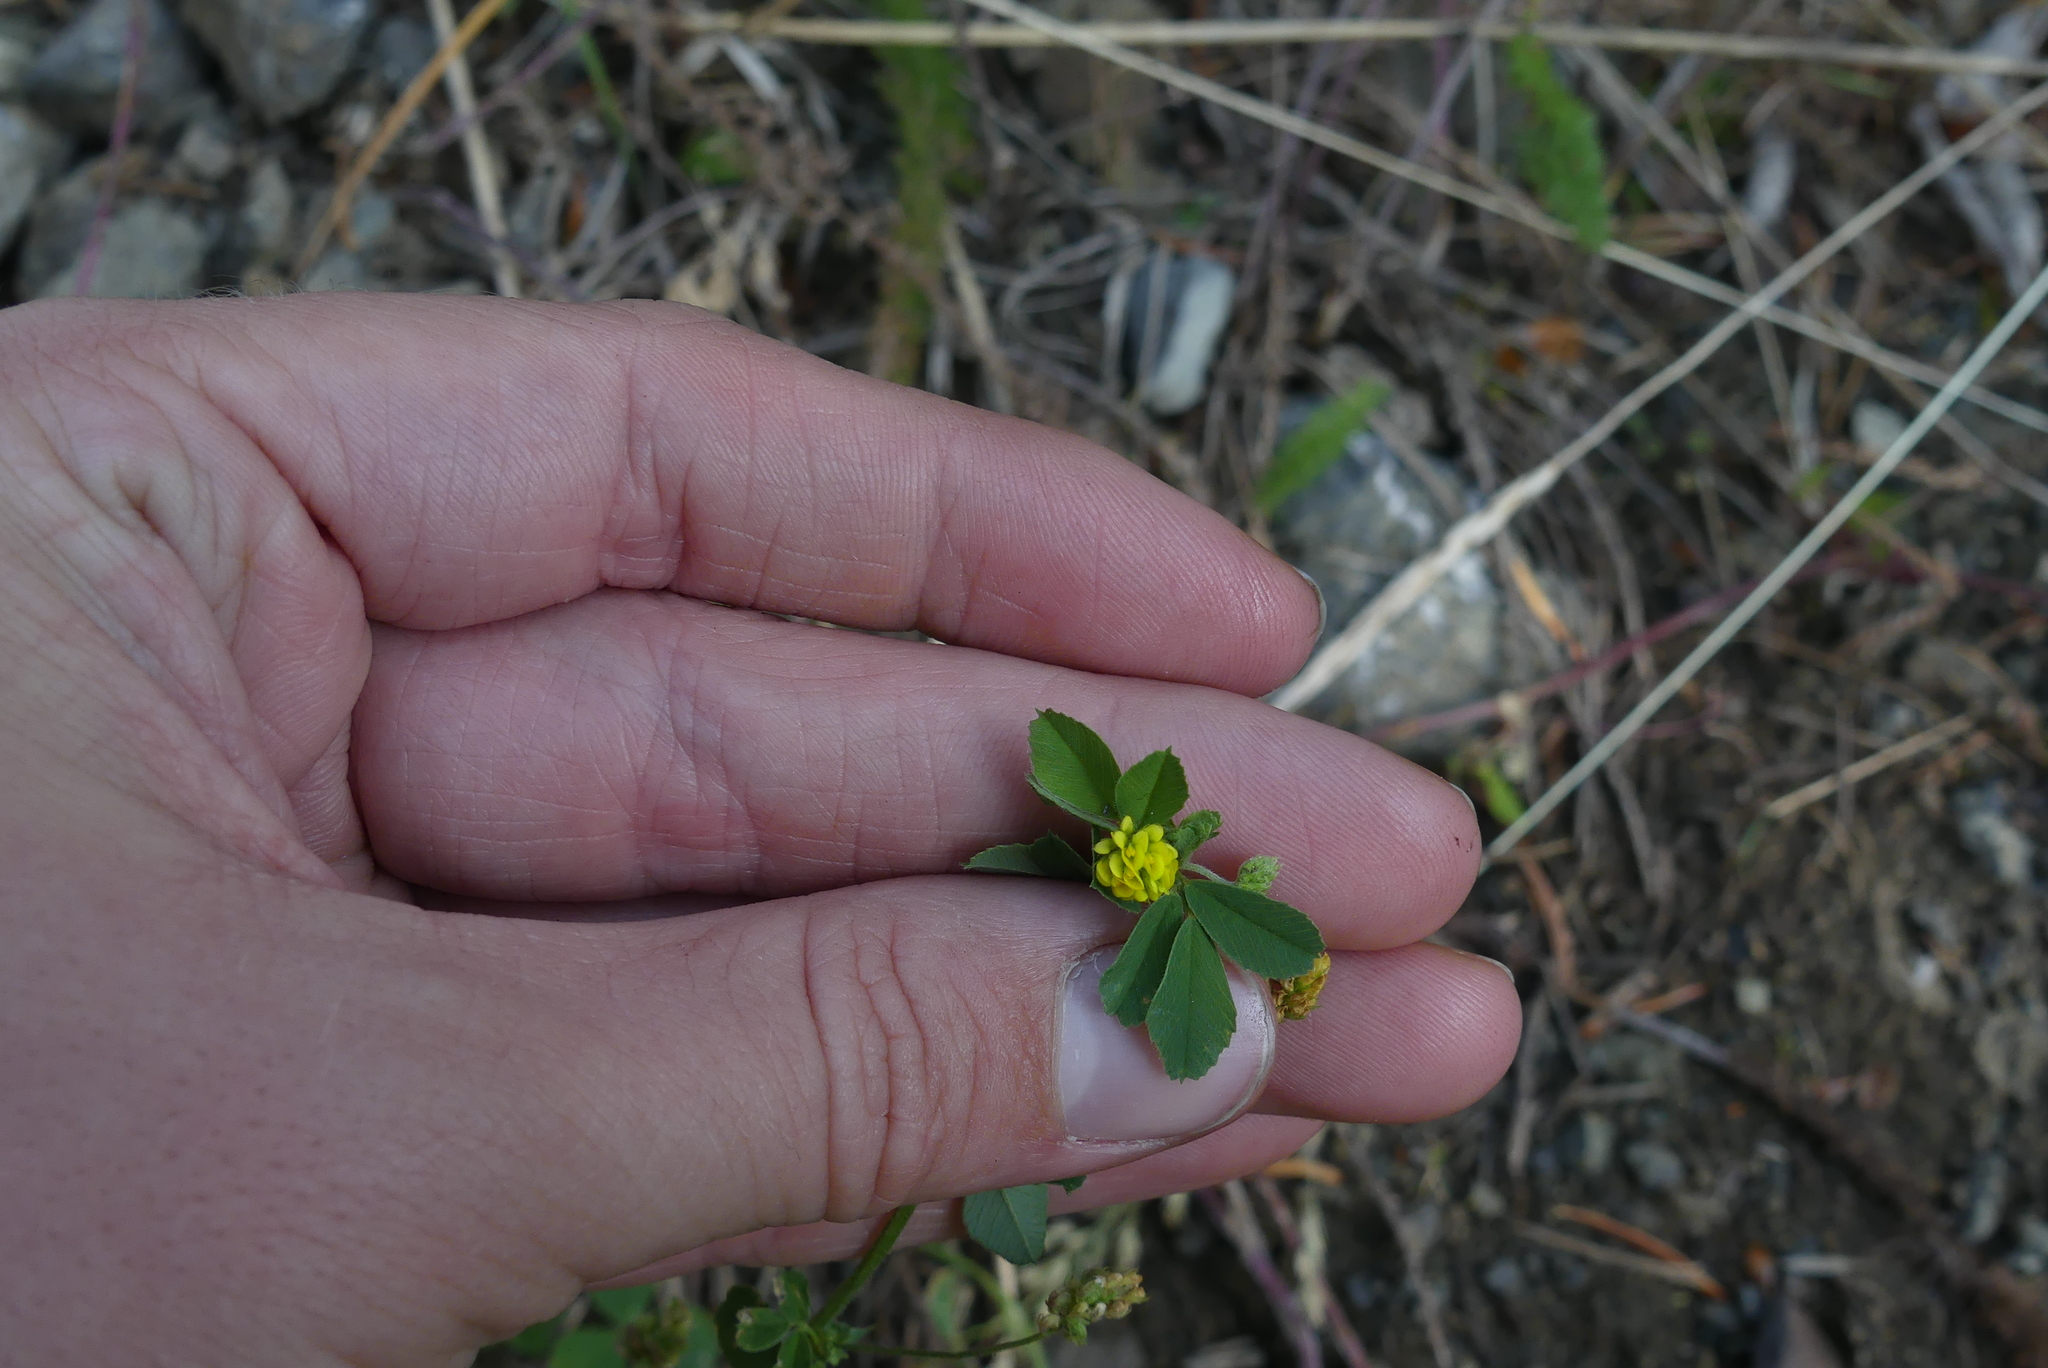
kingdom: Plantae
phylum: Tracheophyta
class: Magnoliopsida
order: Fabales
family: Fabaceae
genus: Medicago
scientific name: Medicago lupulina
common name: Black medick
